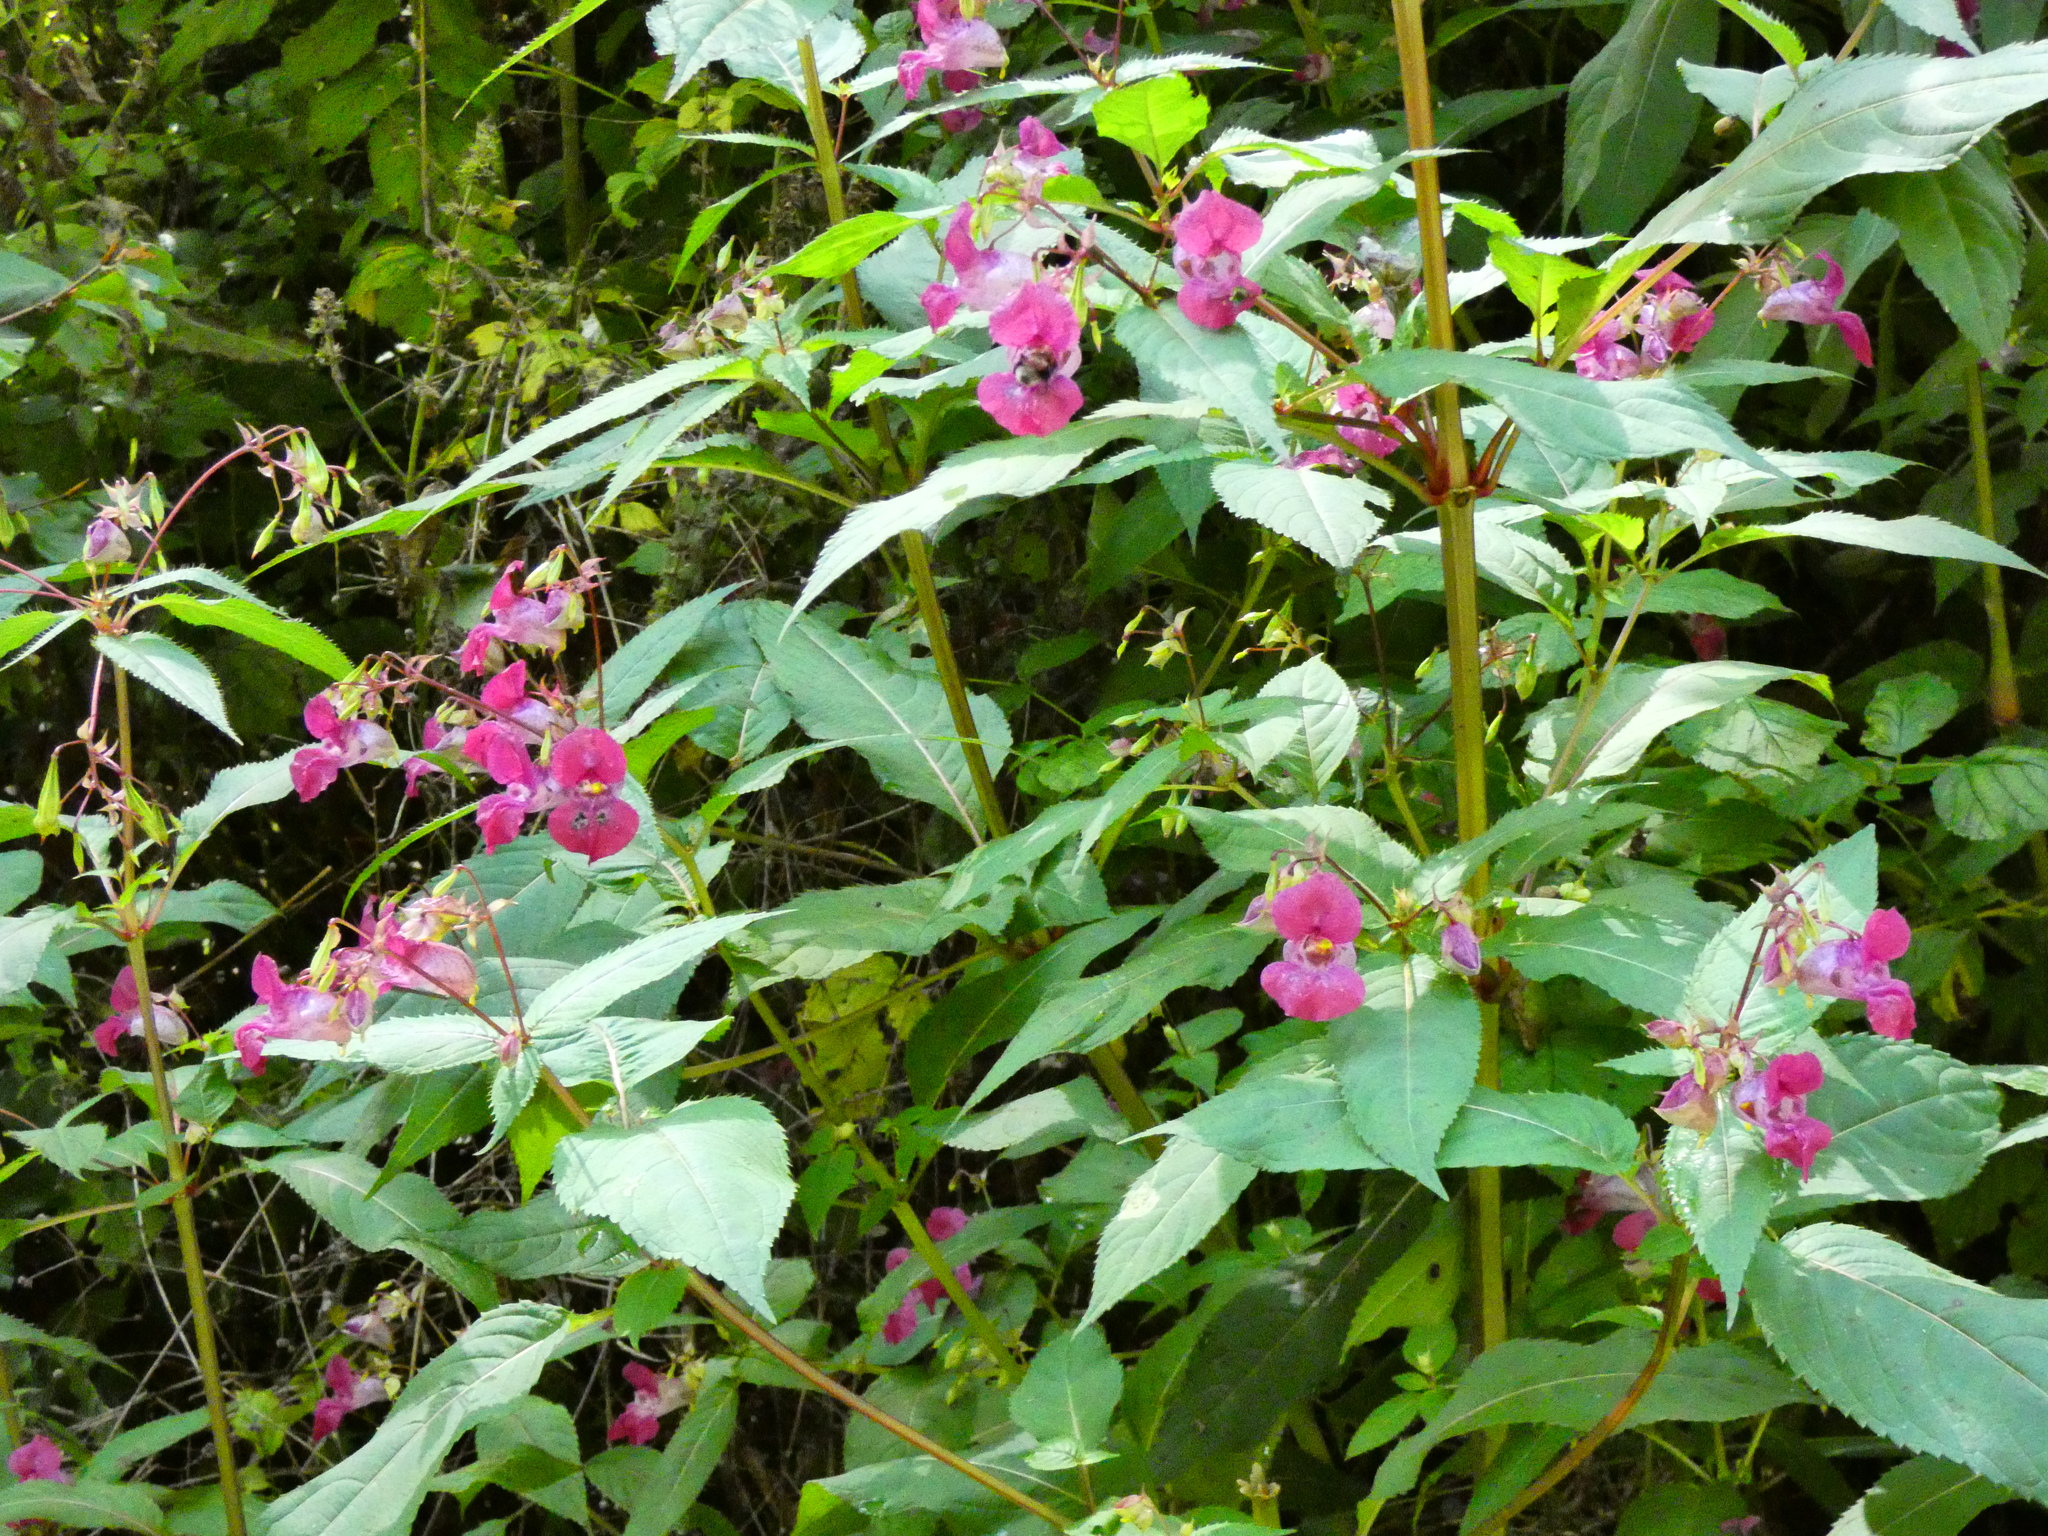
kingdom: Plantae
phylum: Tracheophyta
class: Magnoliopsida
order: Ericales
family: Balsaminaceae
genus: Impatiens
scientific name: Impatiens glandulifera
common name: Himalayan balsam
